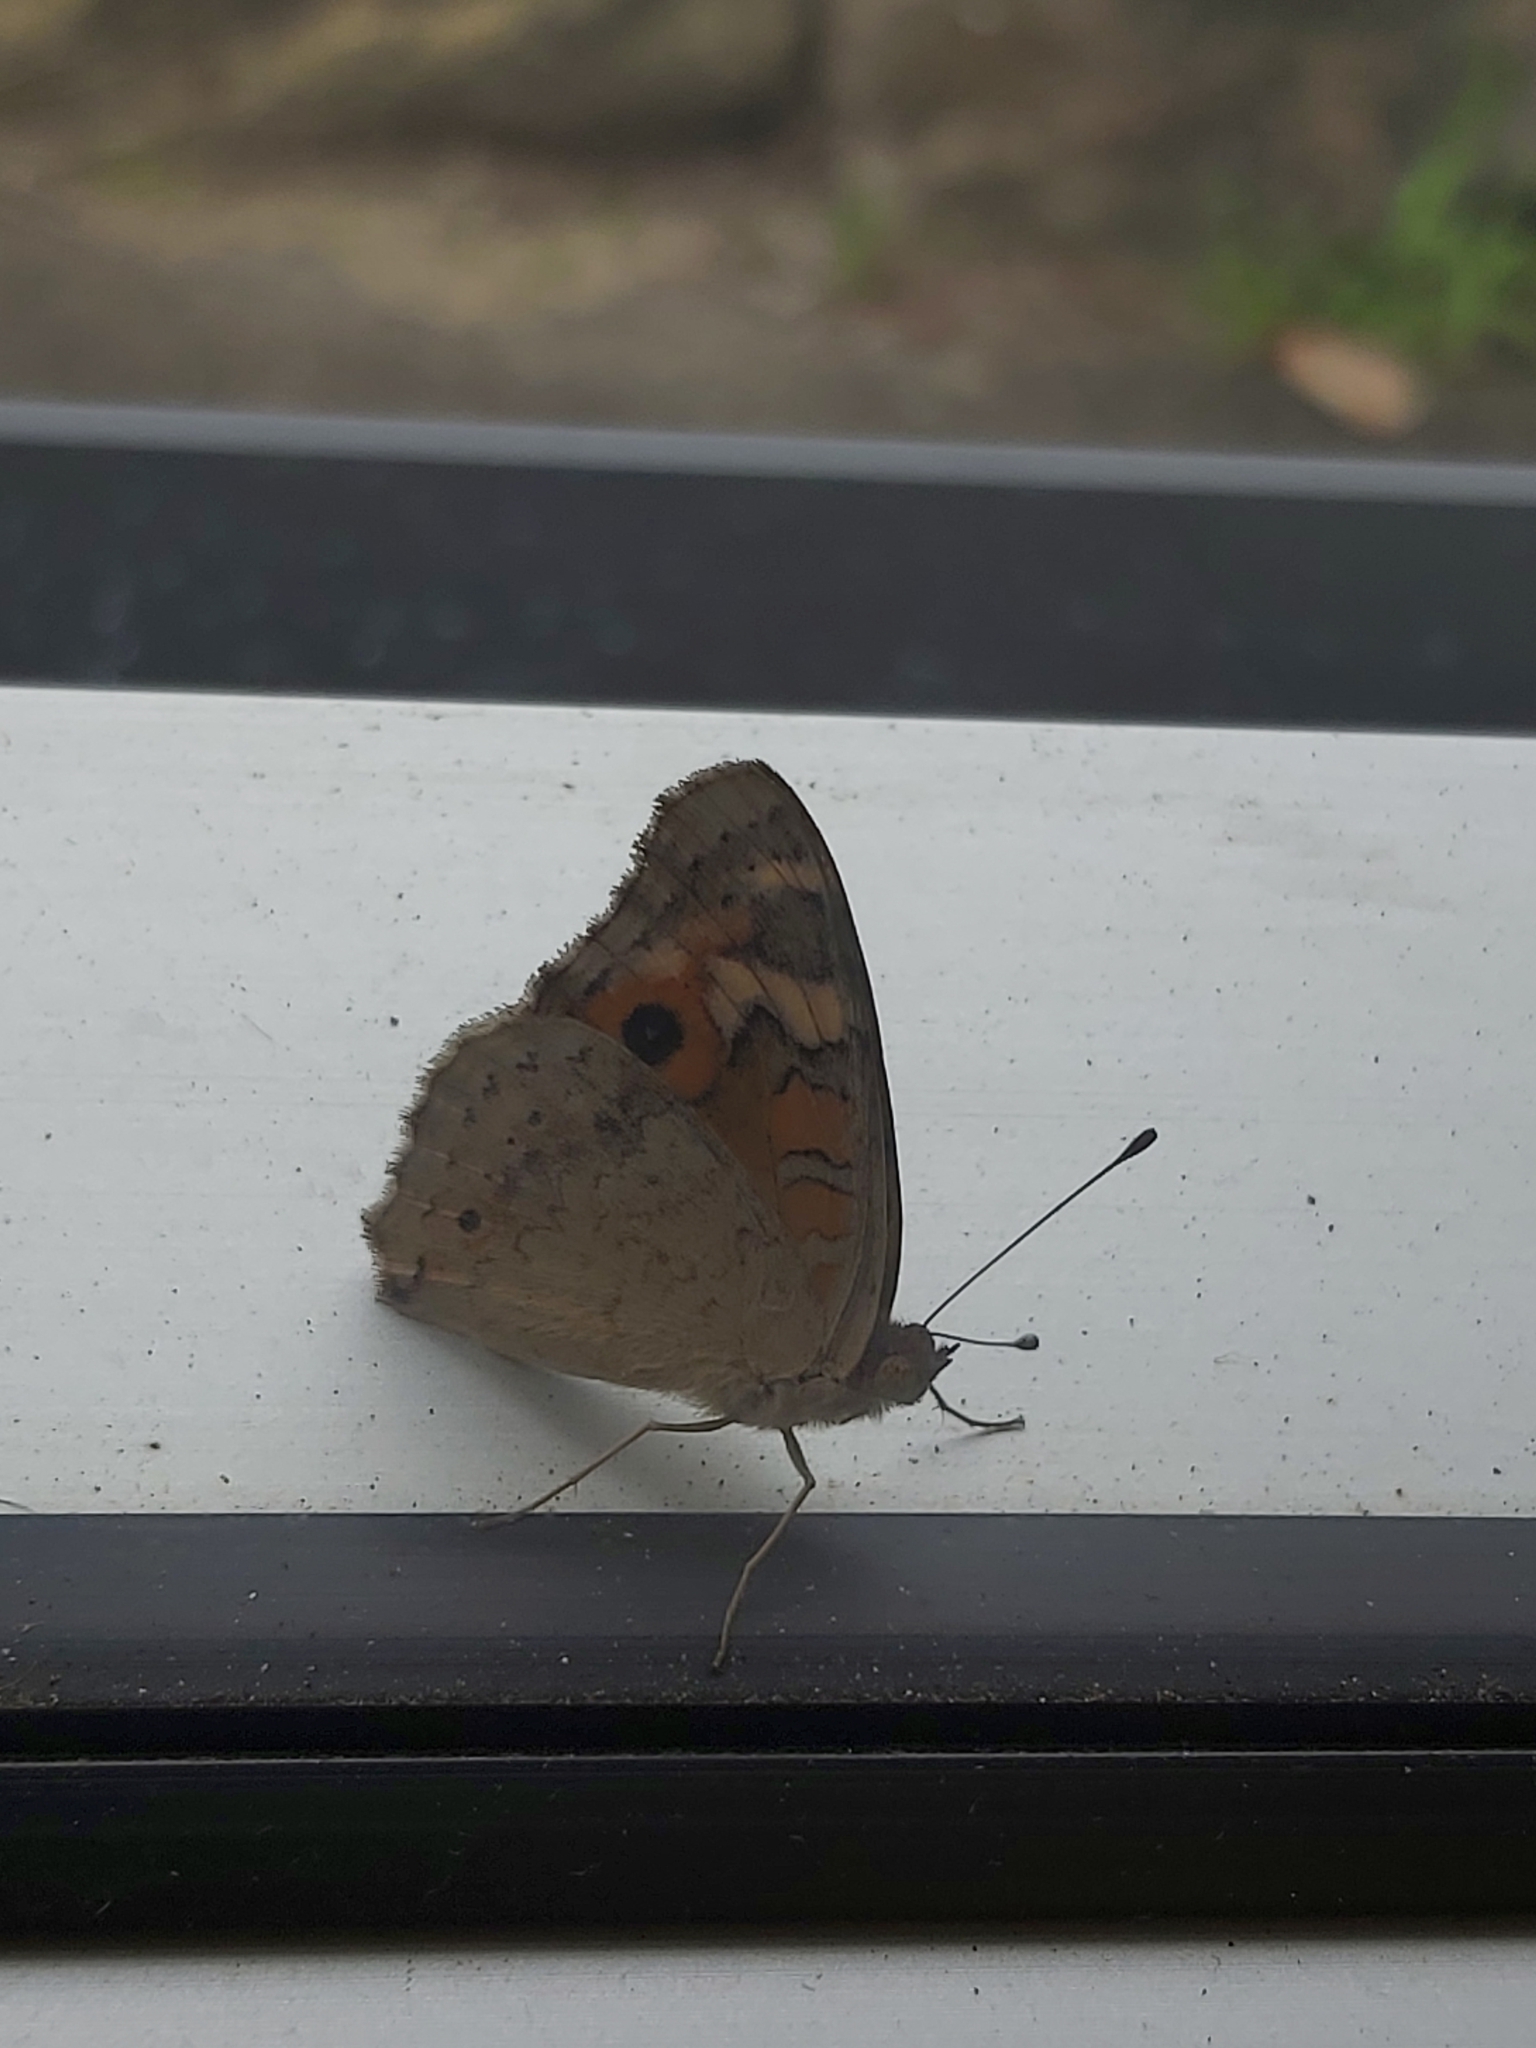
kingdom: Animalia
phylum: Arthropoda
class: Insecta
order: Lepidoptera
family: Nymphalidae
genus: Junonia
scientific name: Junonia villida
